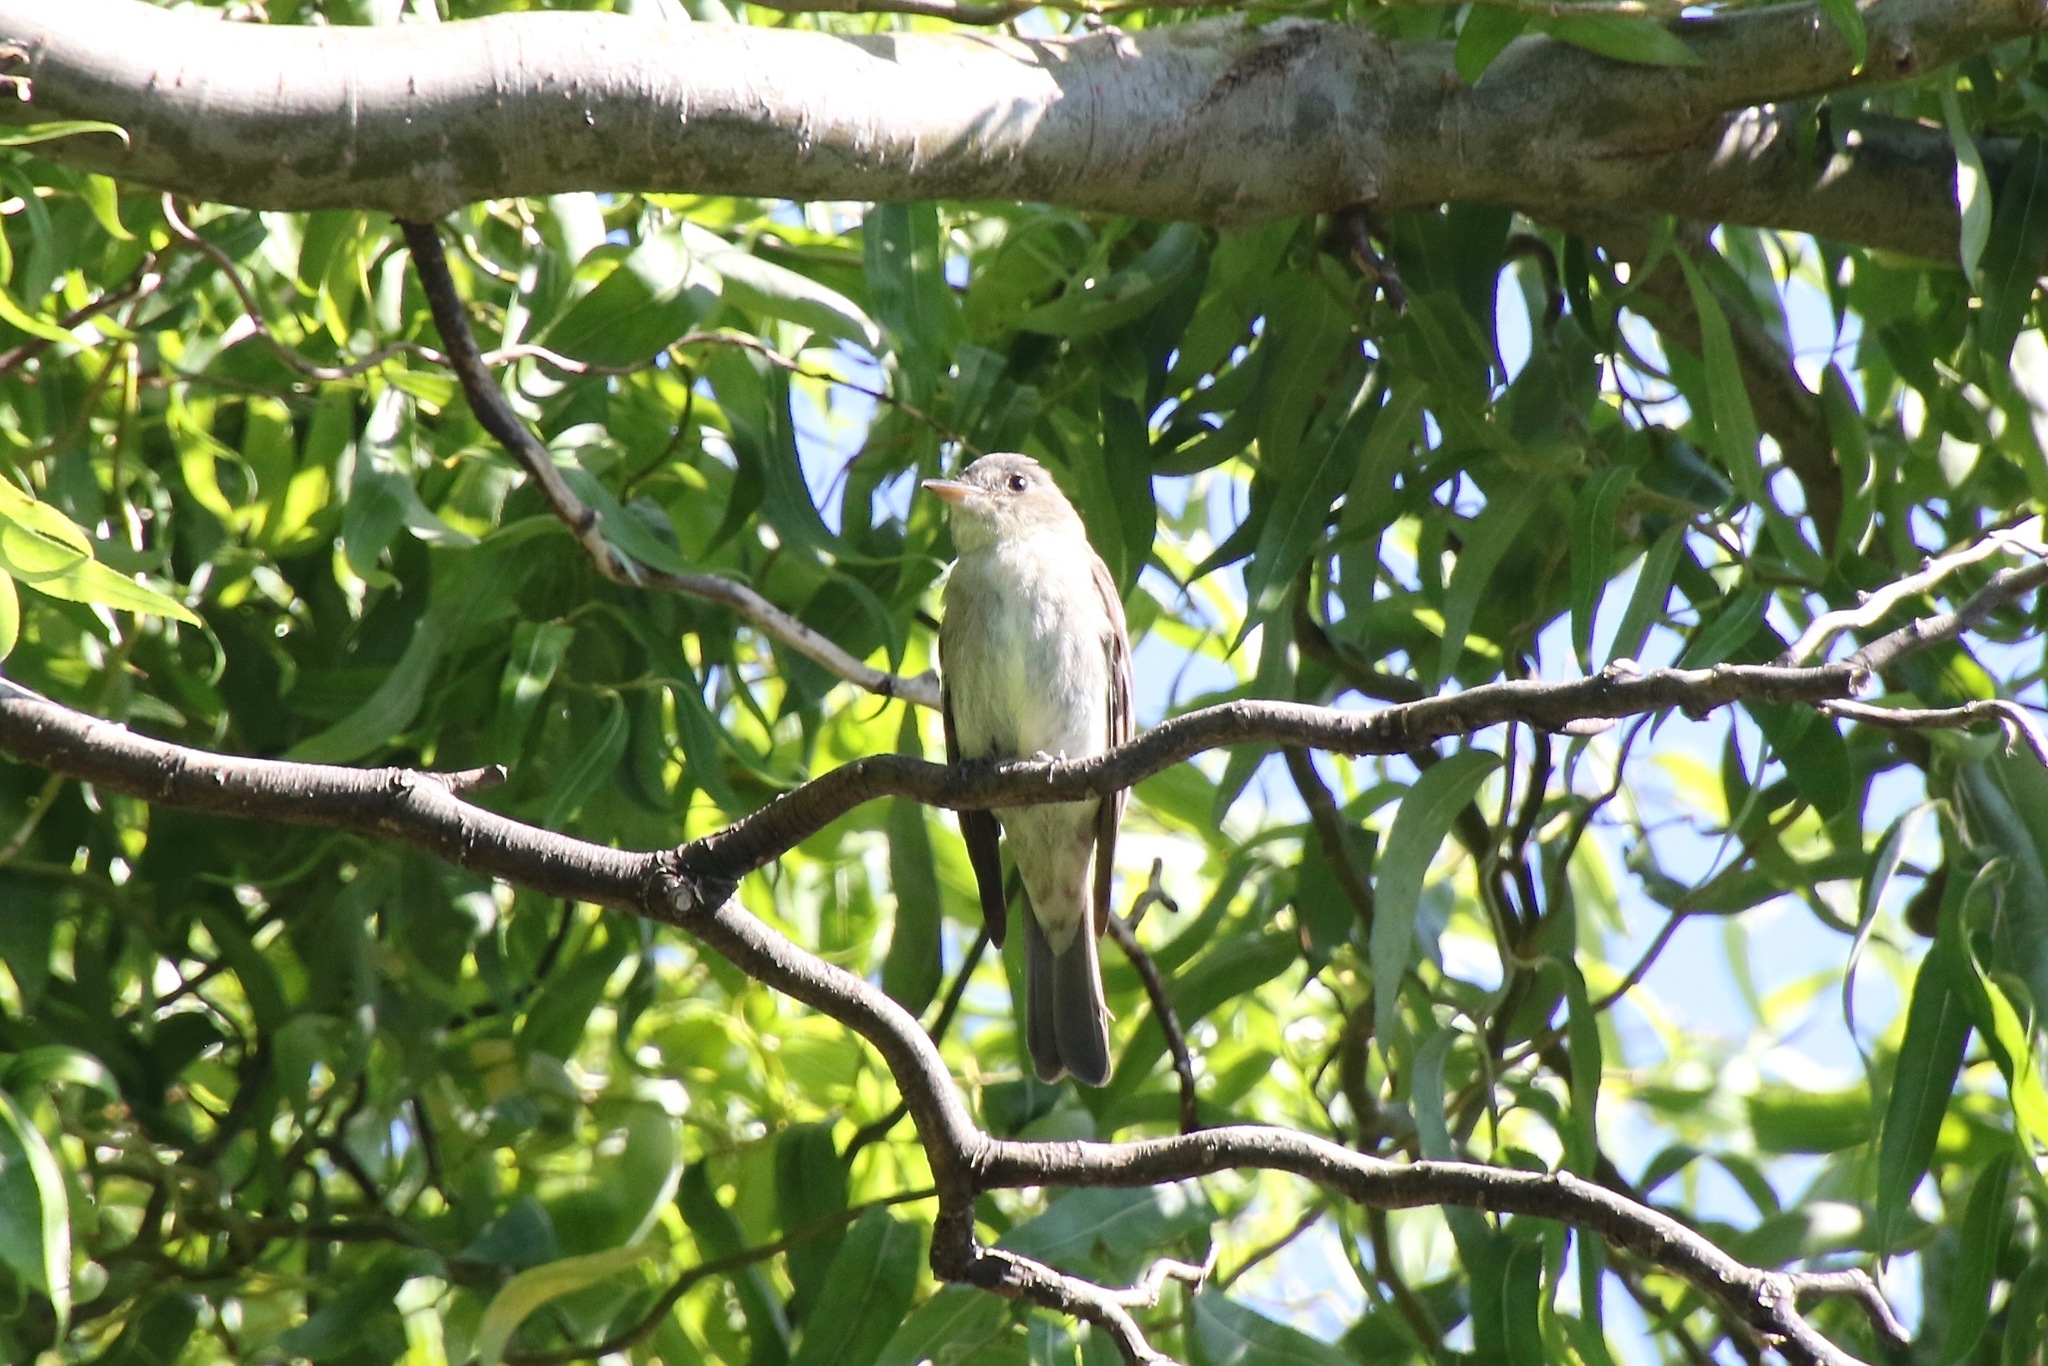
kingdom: Animalia
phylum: Chordata
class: Aves
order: Passeriformes
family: Tyrannidae
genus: Contopus
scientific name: Contopus virens
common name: Eastern wood-pewee
